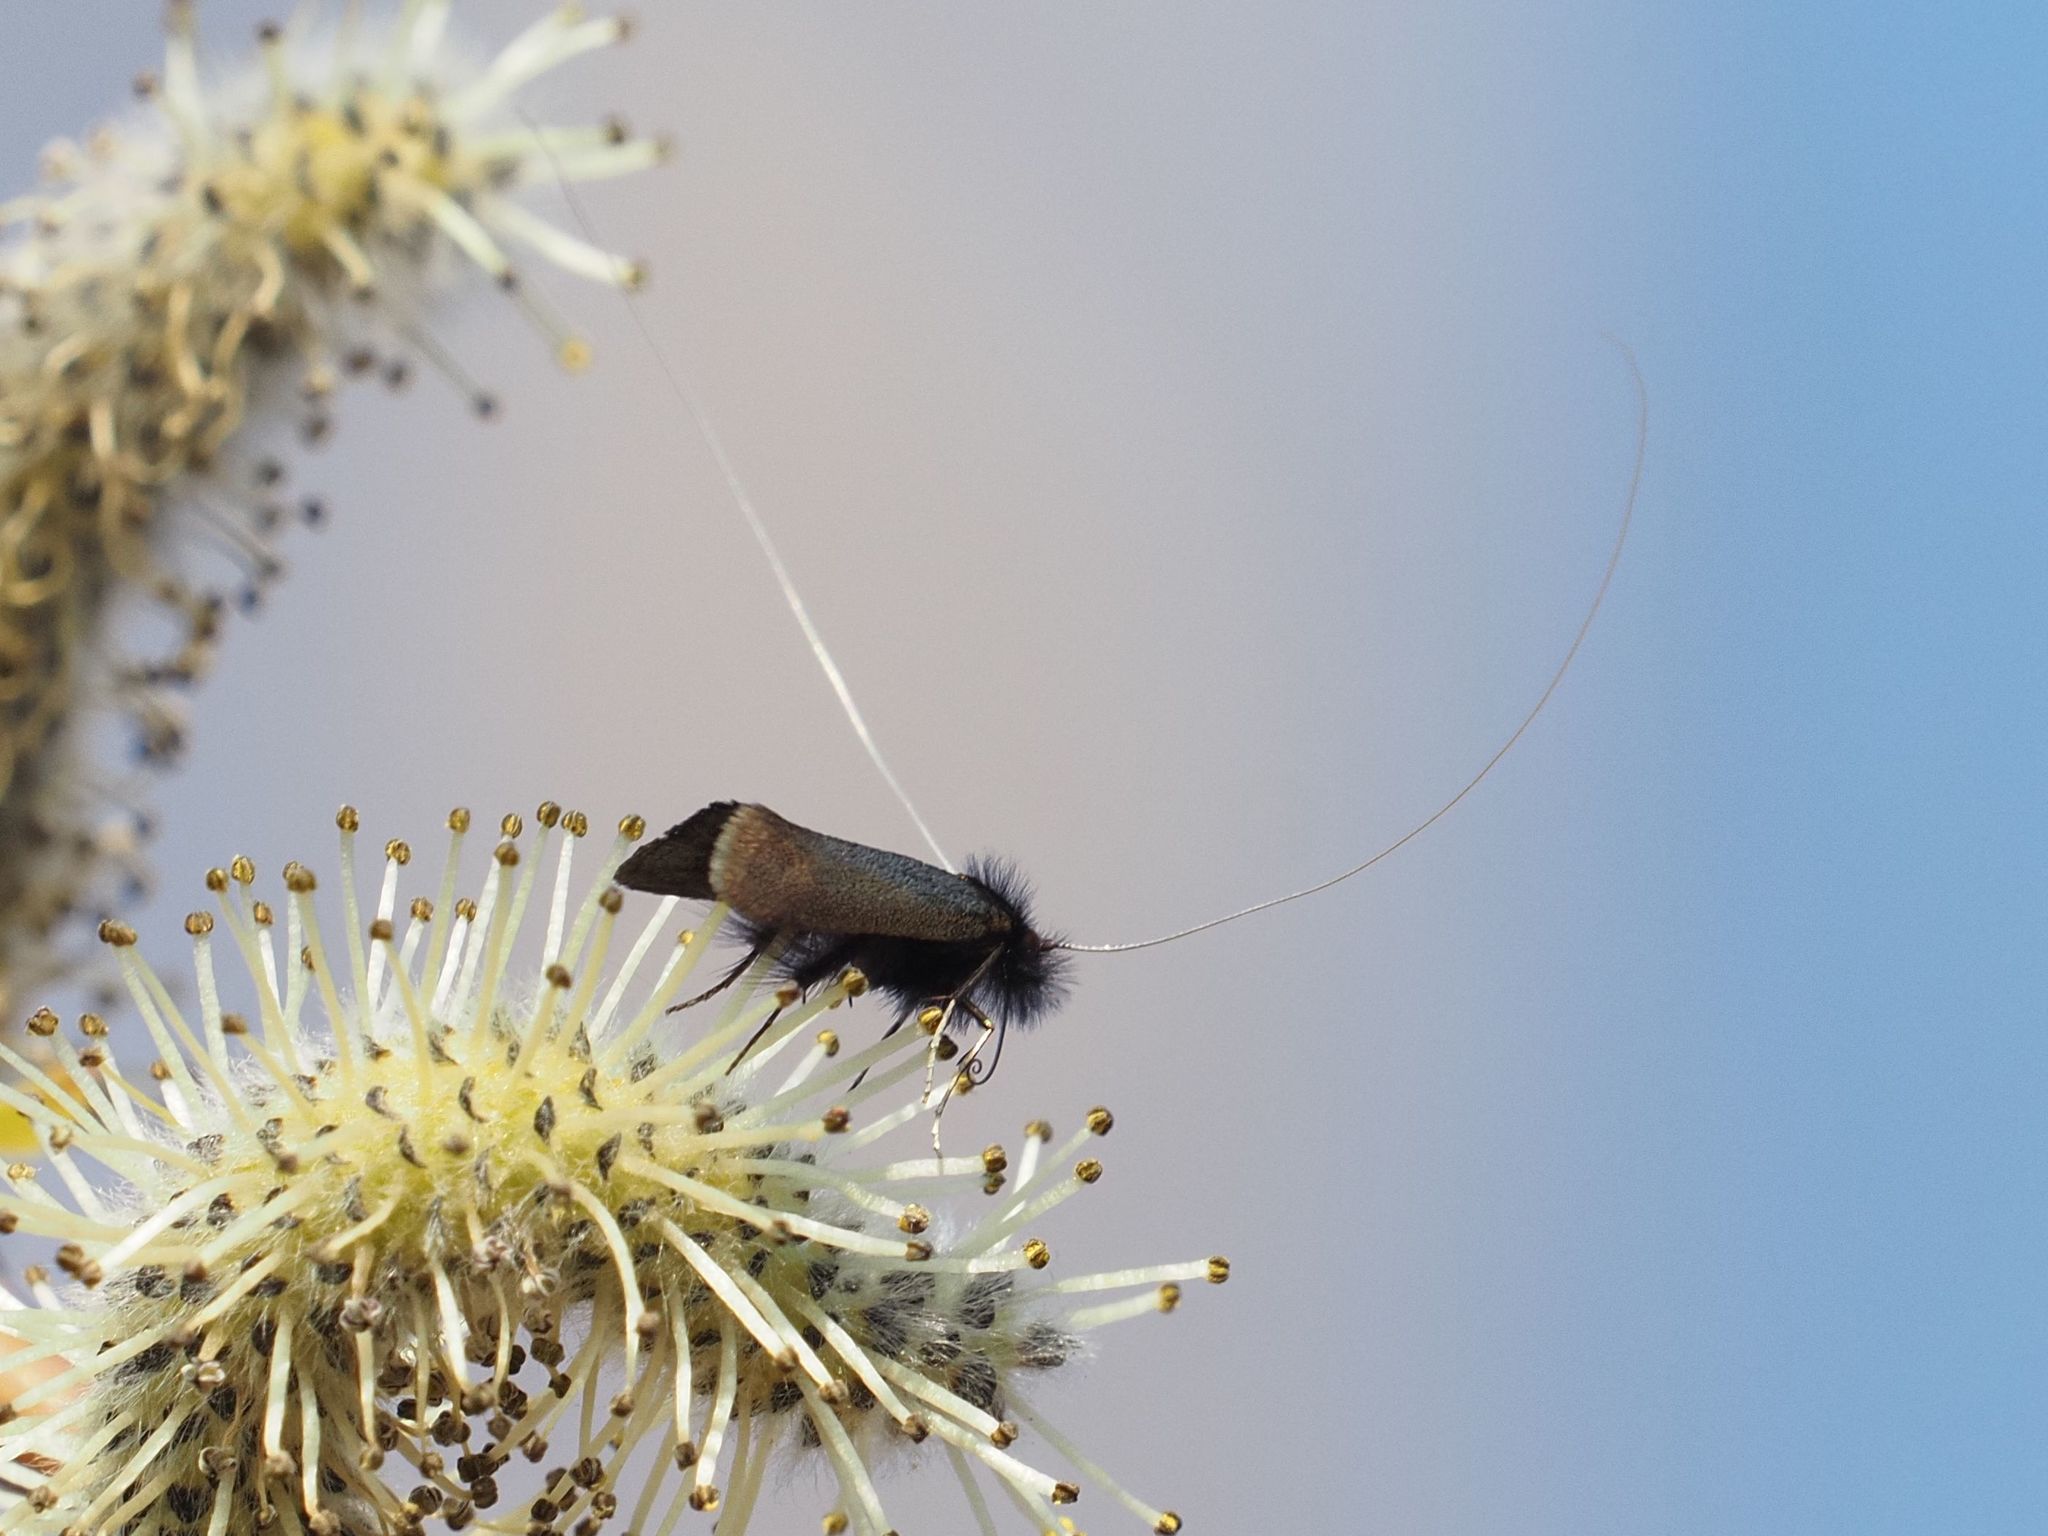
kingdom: Animalia
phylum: Arthropoda
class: Insecta
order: Lepidoptera
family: Adelidae
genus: Adela
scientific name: Adela cuprella
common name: Early long-horn
